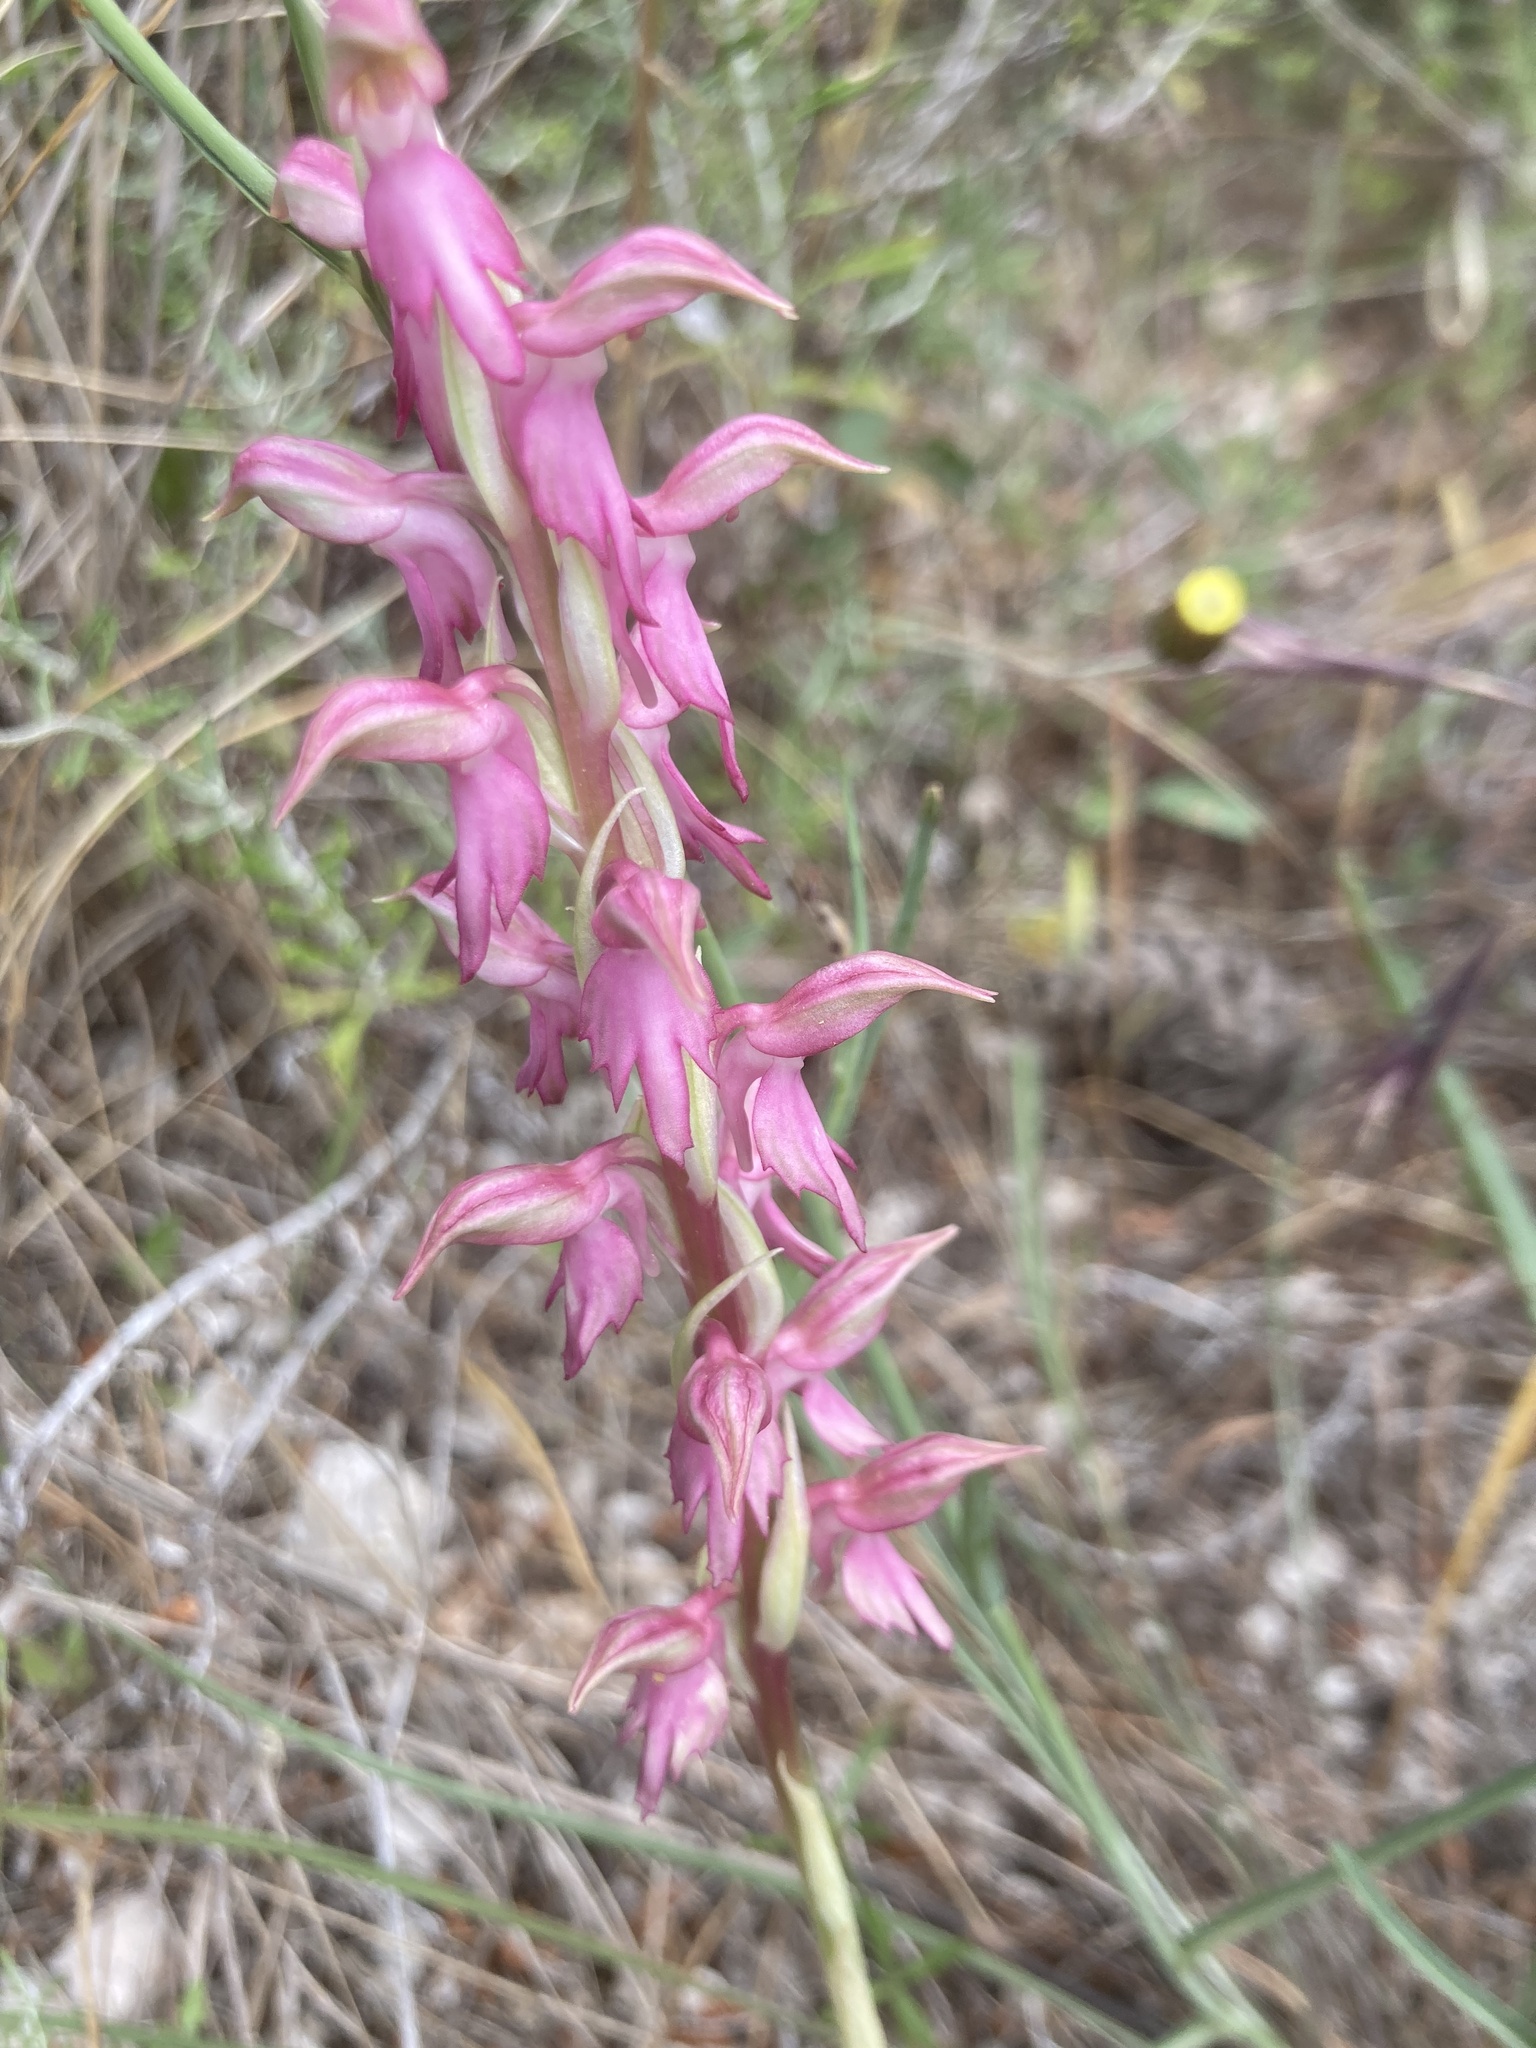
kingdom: Plantae
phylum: Tracheophyta
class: Liliopsida
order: Asparagales
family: Orchidaceae
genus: Anacamptis
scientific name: Anacamptis sancta
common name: Holy orchid
